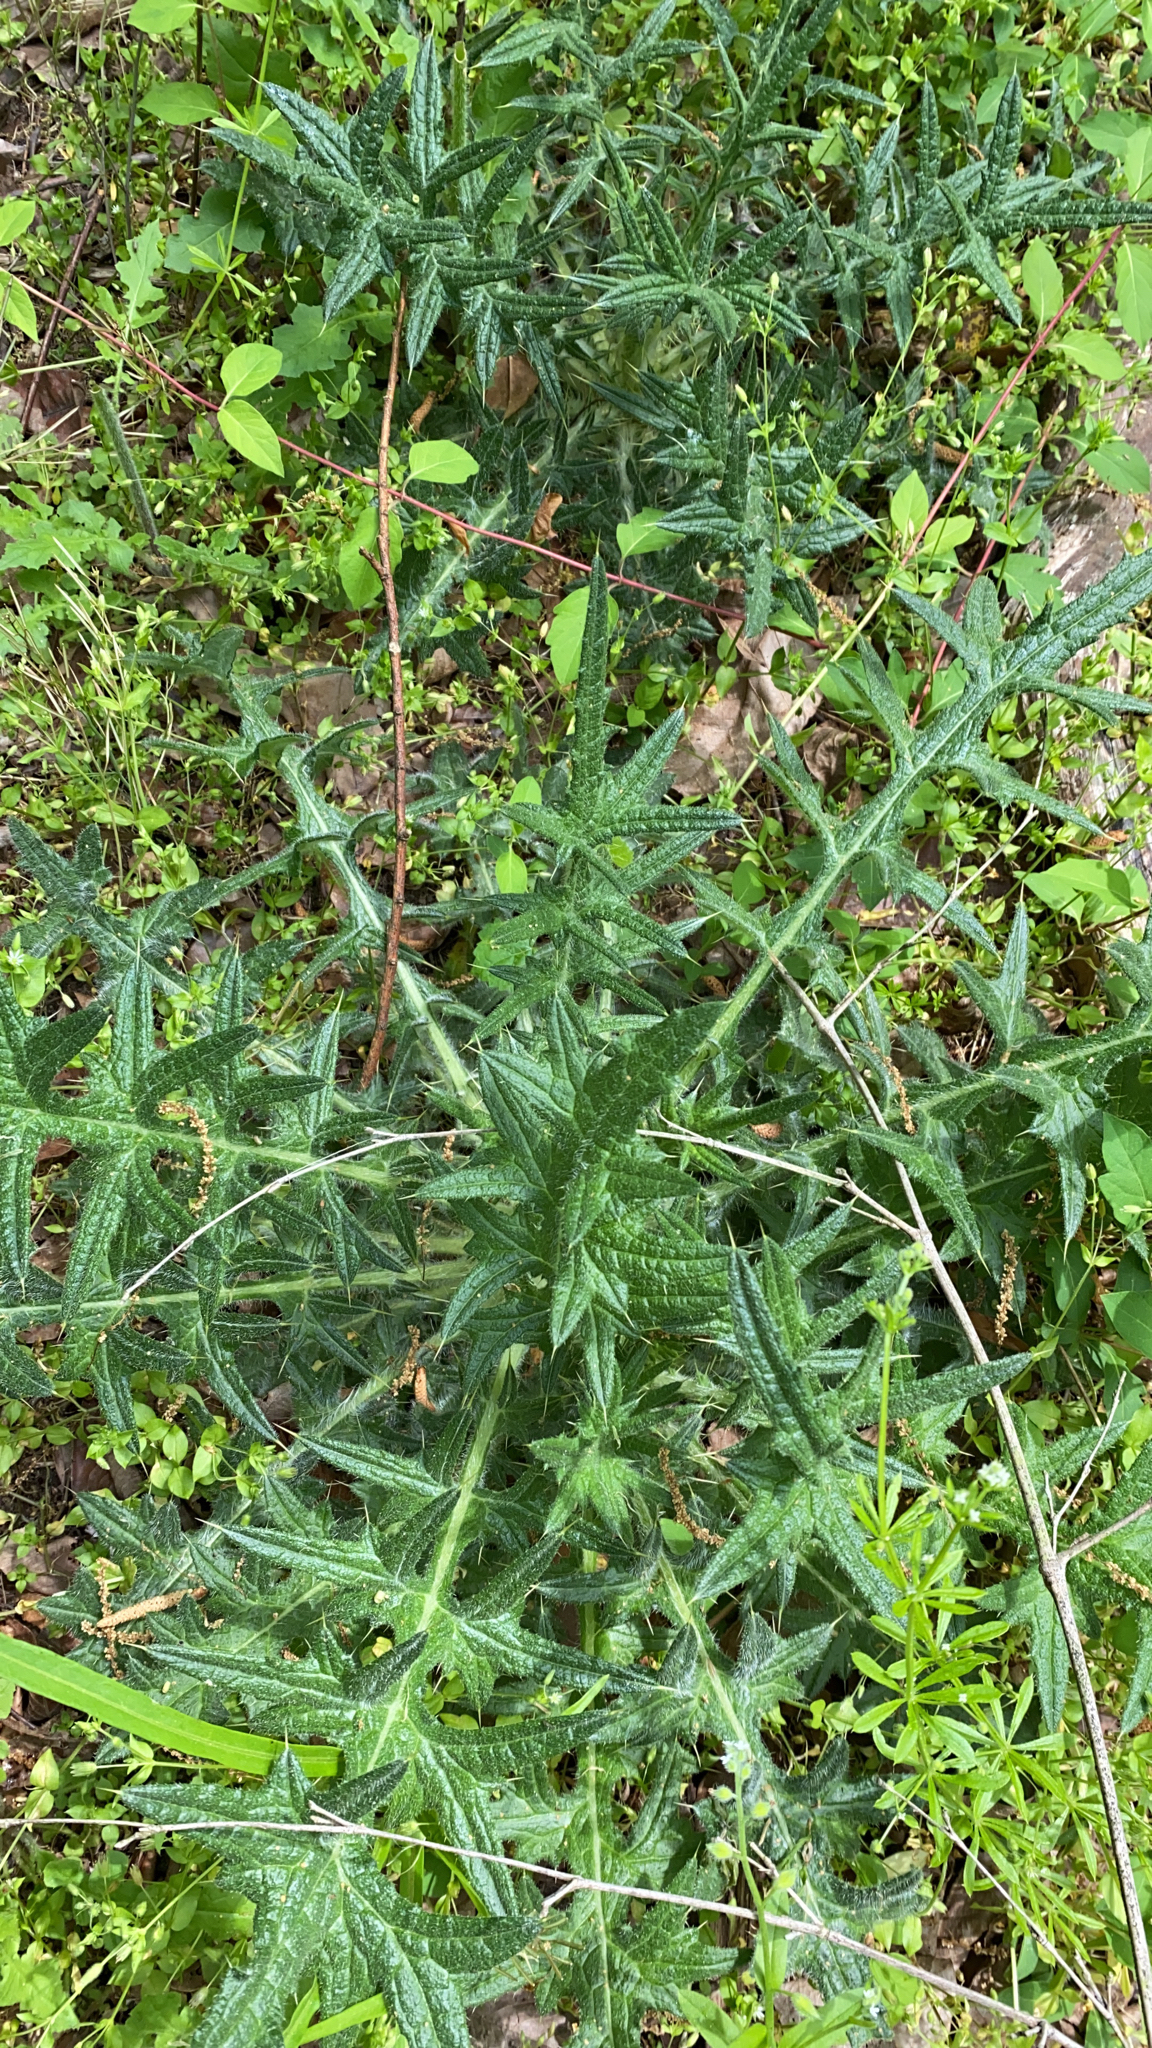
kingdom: Plantae
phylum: Tracheophyta
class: Magnoliopsida
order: Asterales
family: Asteraceae
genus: Cirsium
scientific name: Cirsium vulgare
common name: Bull thistle
